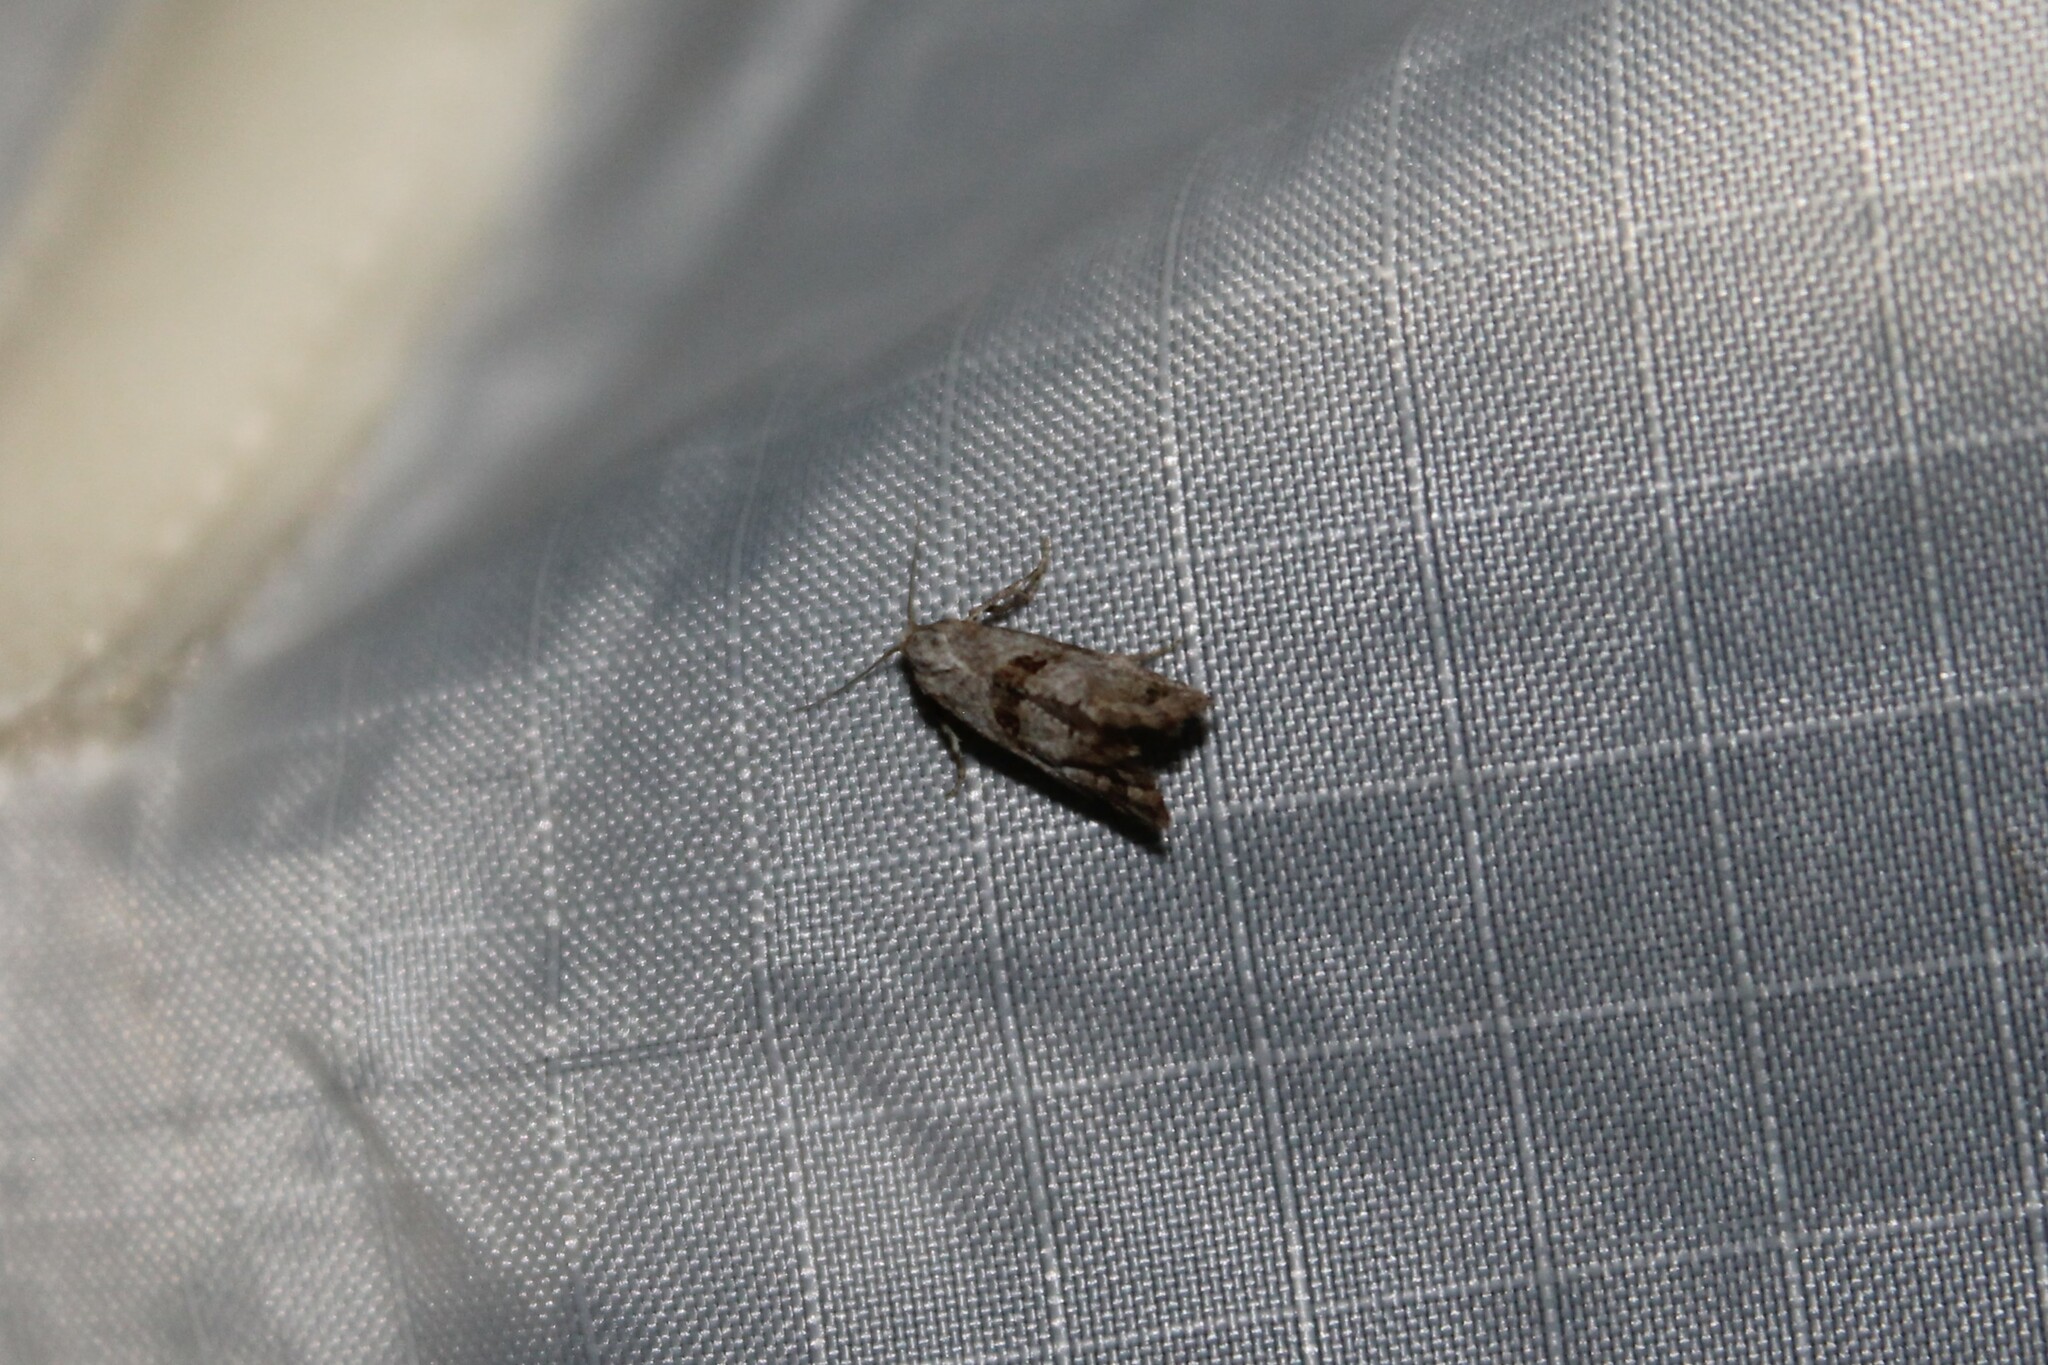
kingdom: Animalia
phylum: Arthropoda
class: Insecta
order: Lepidoptera
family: Tortricidae
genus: Phalonidia
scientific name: Phalonidia Platphalonidia felix
